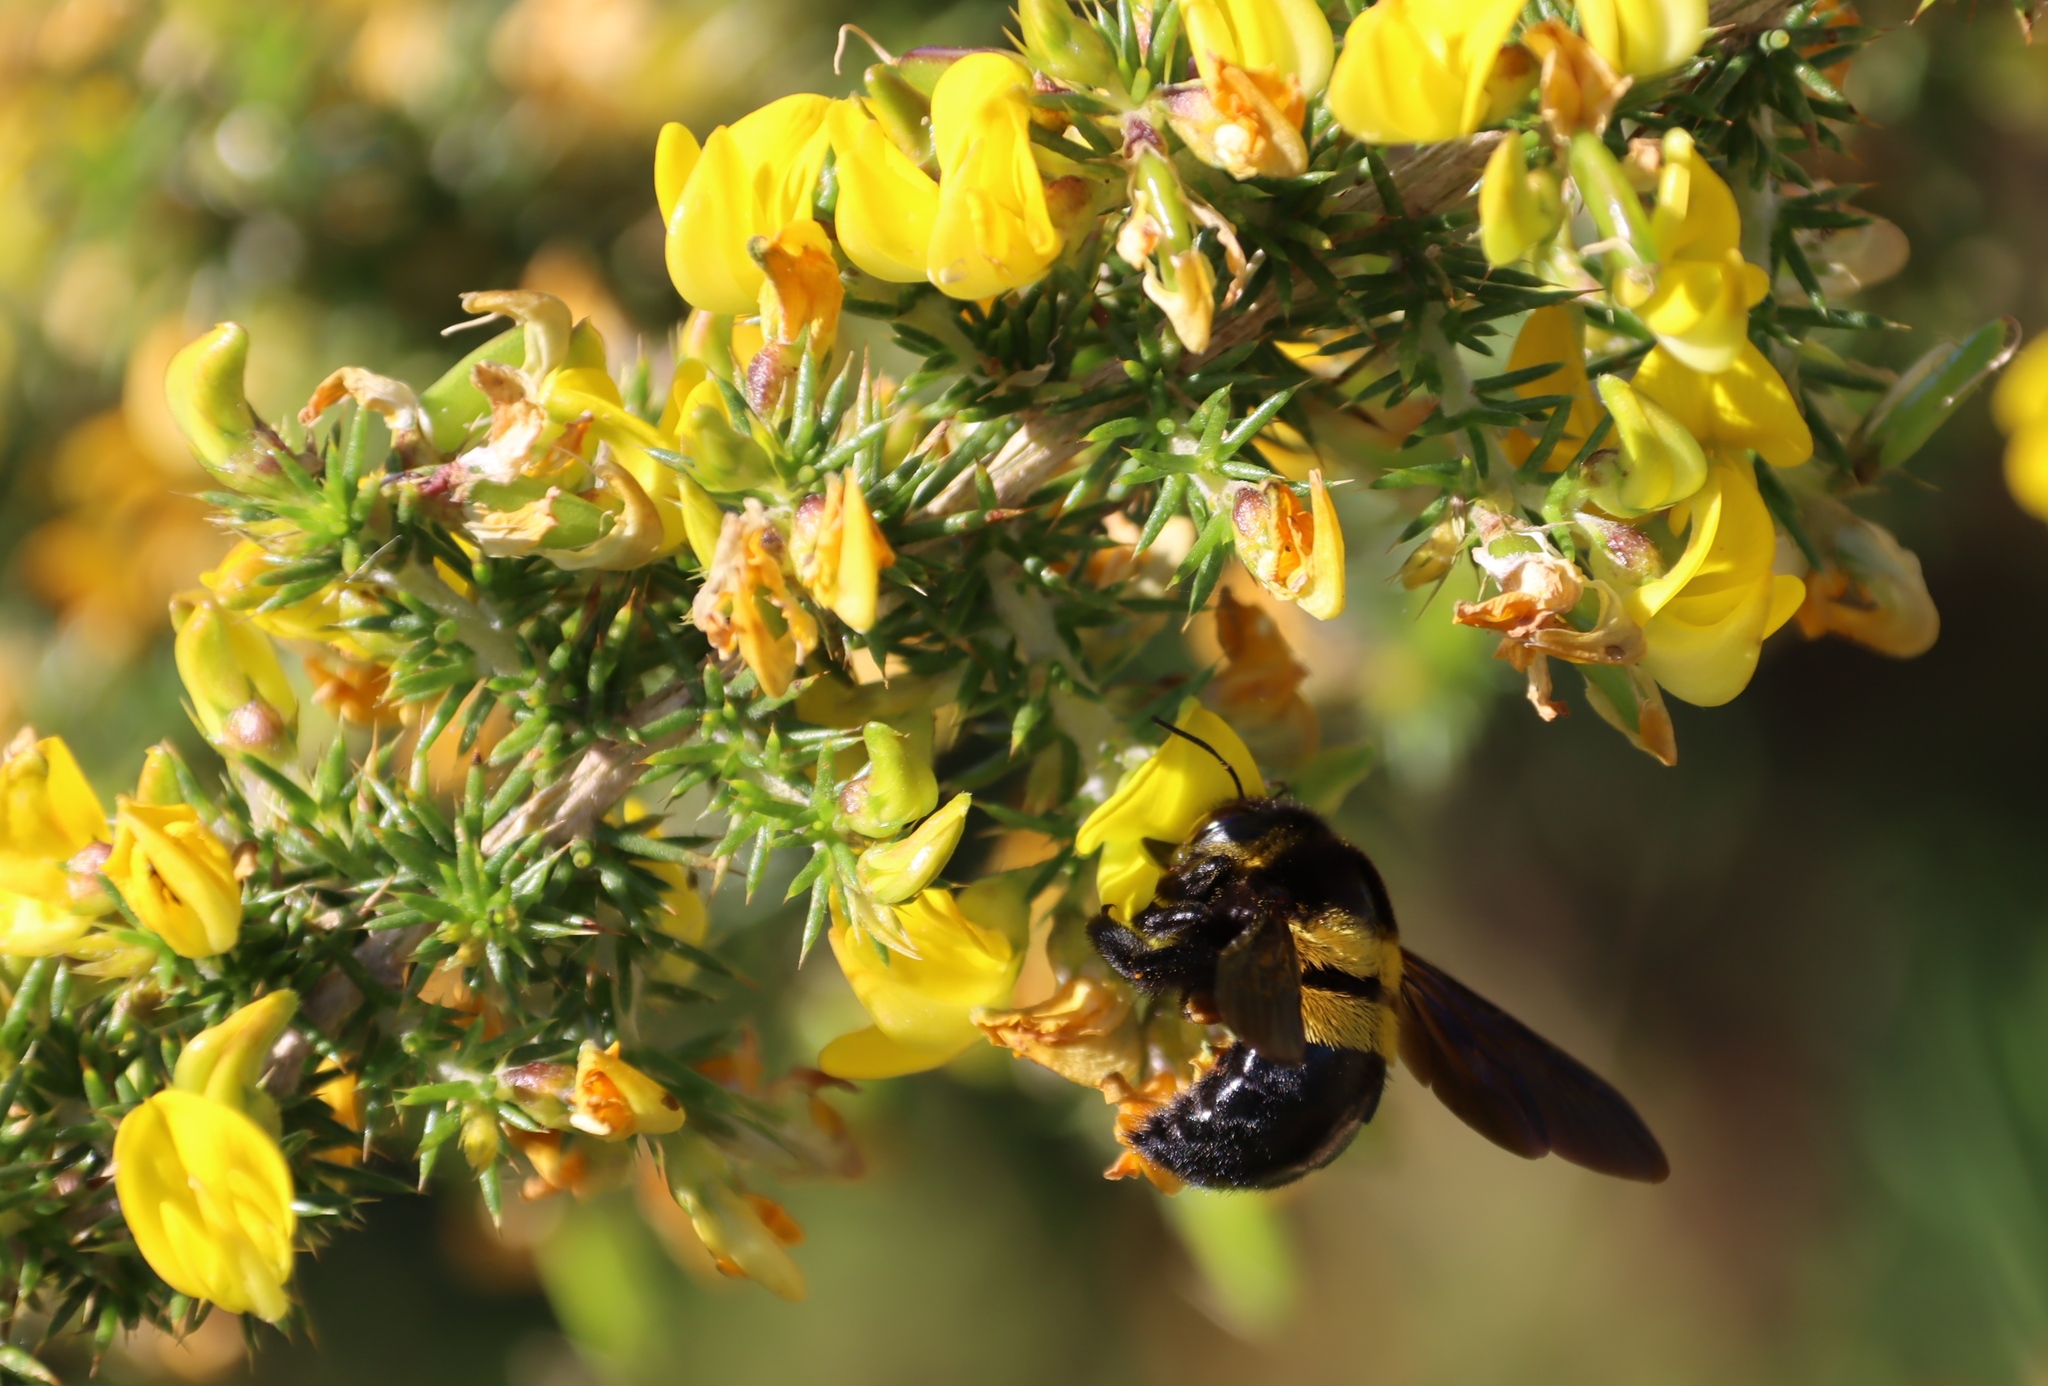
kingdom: Plantae
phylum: Tracheophyta
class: Magnoliopsida
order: Fabales
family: Fabaceae
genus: Aspalathus
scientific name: Aspalathus astroites
